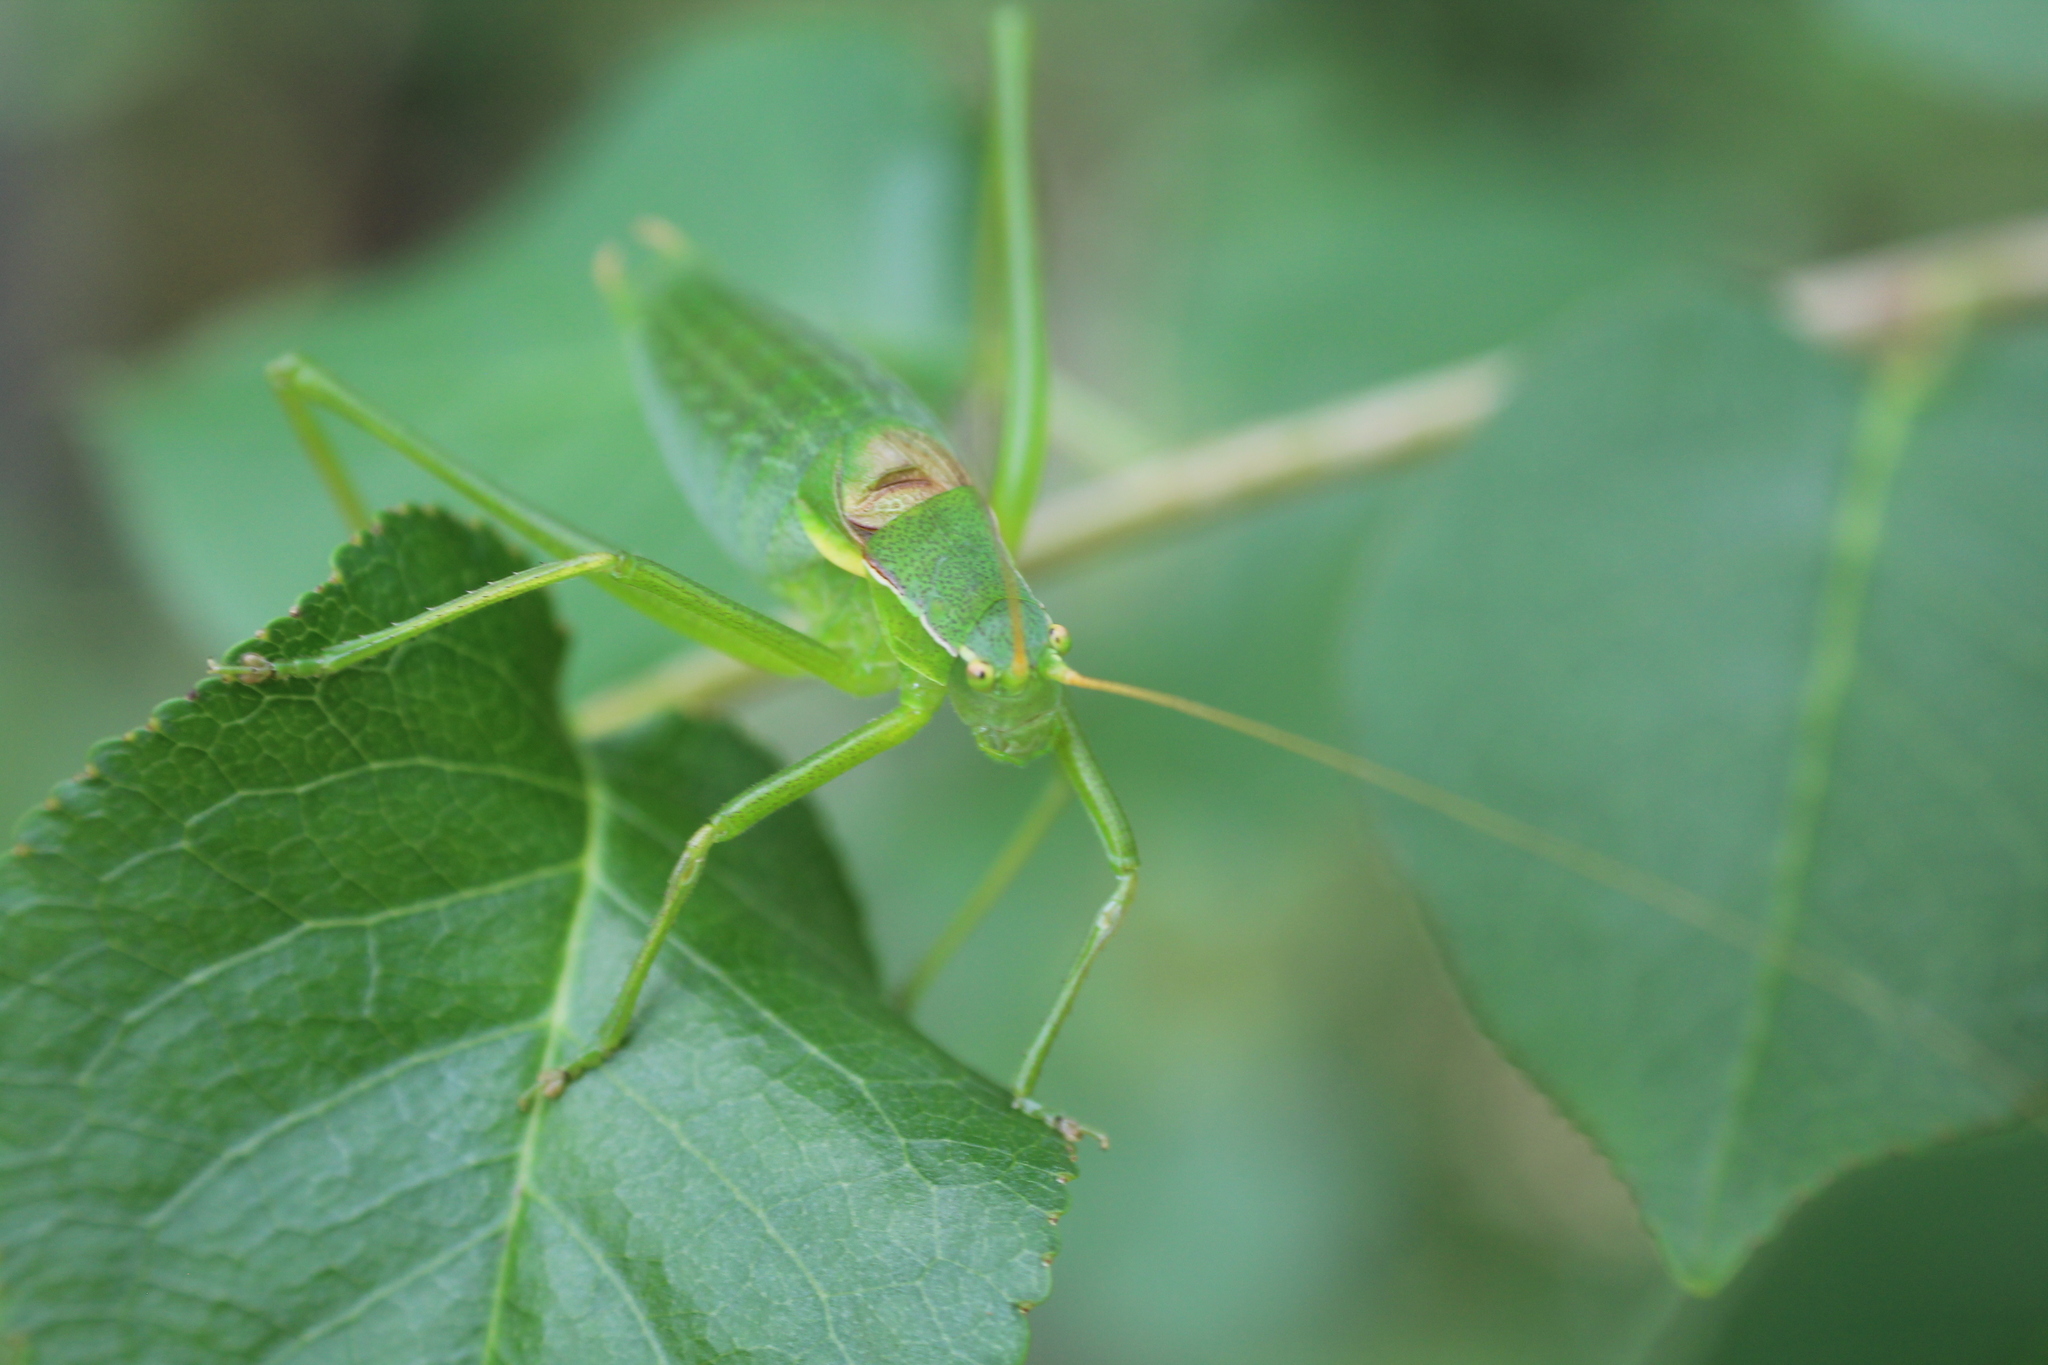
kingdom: Animalia
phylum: Arthropoda
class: Insecta
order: Orthoptera
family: Tettigoniidae
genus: Isophya
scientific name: Isophya pyrenaea
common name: Pyrenean plump bush-cricket
